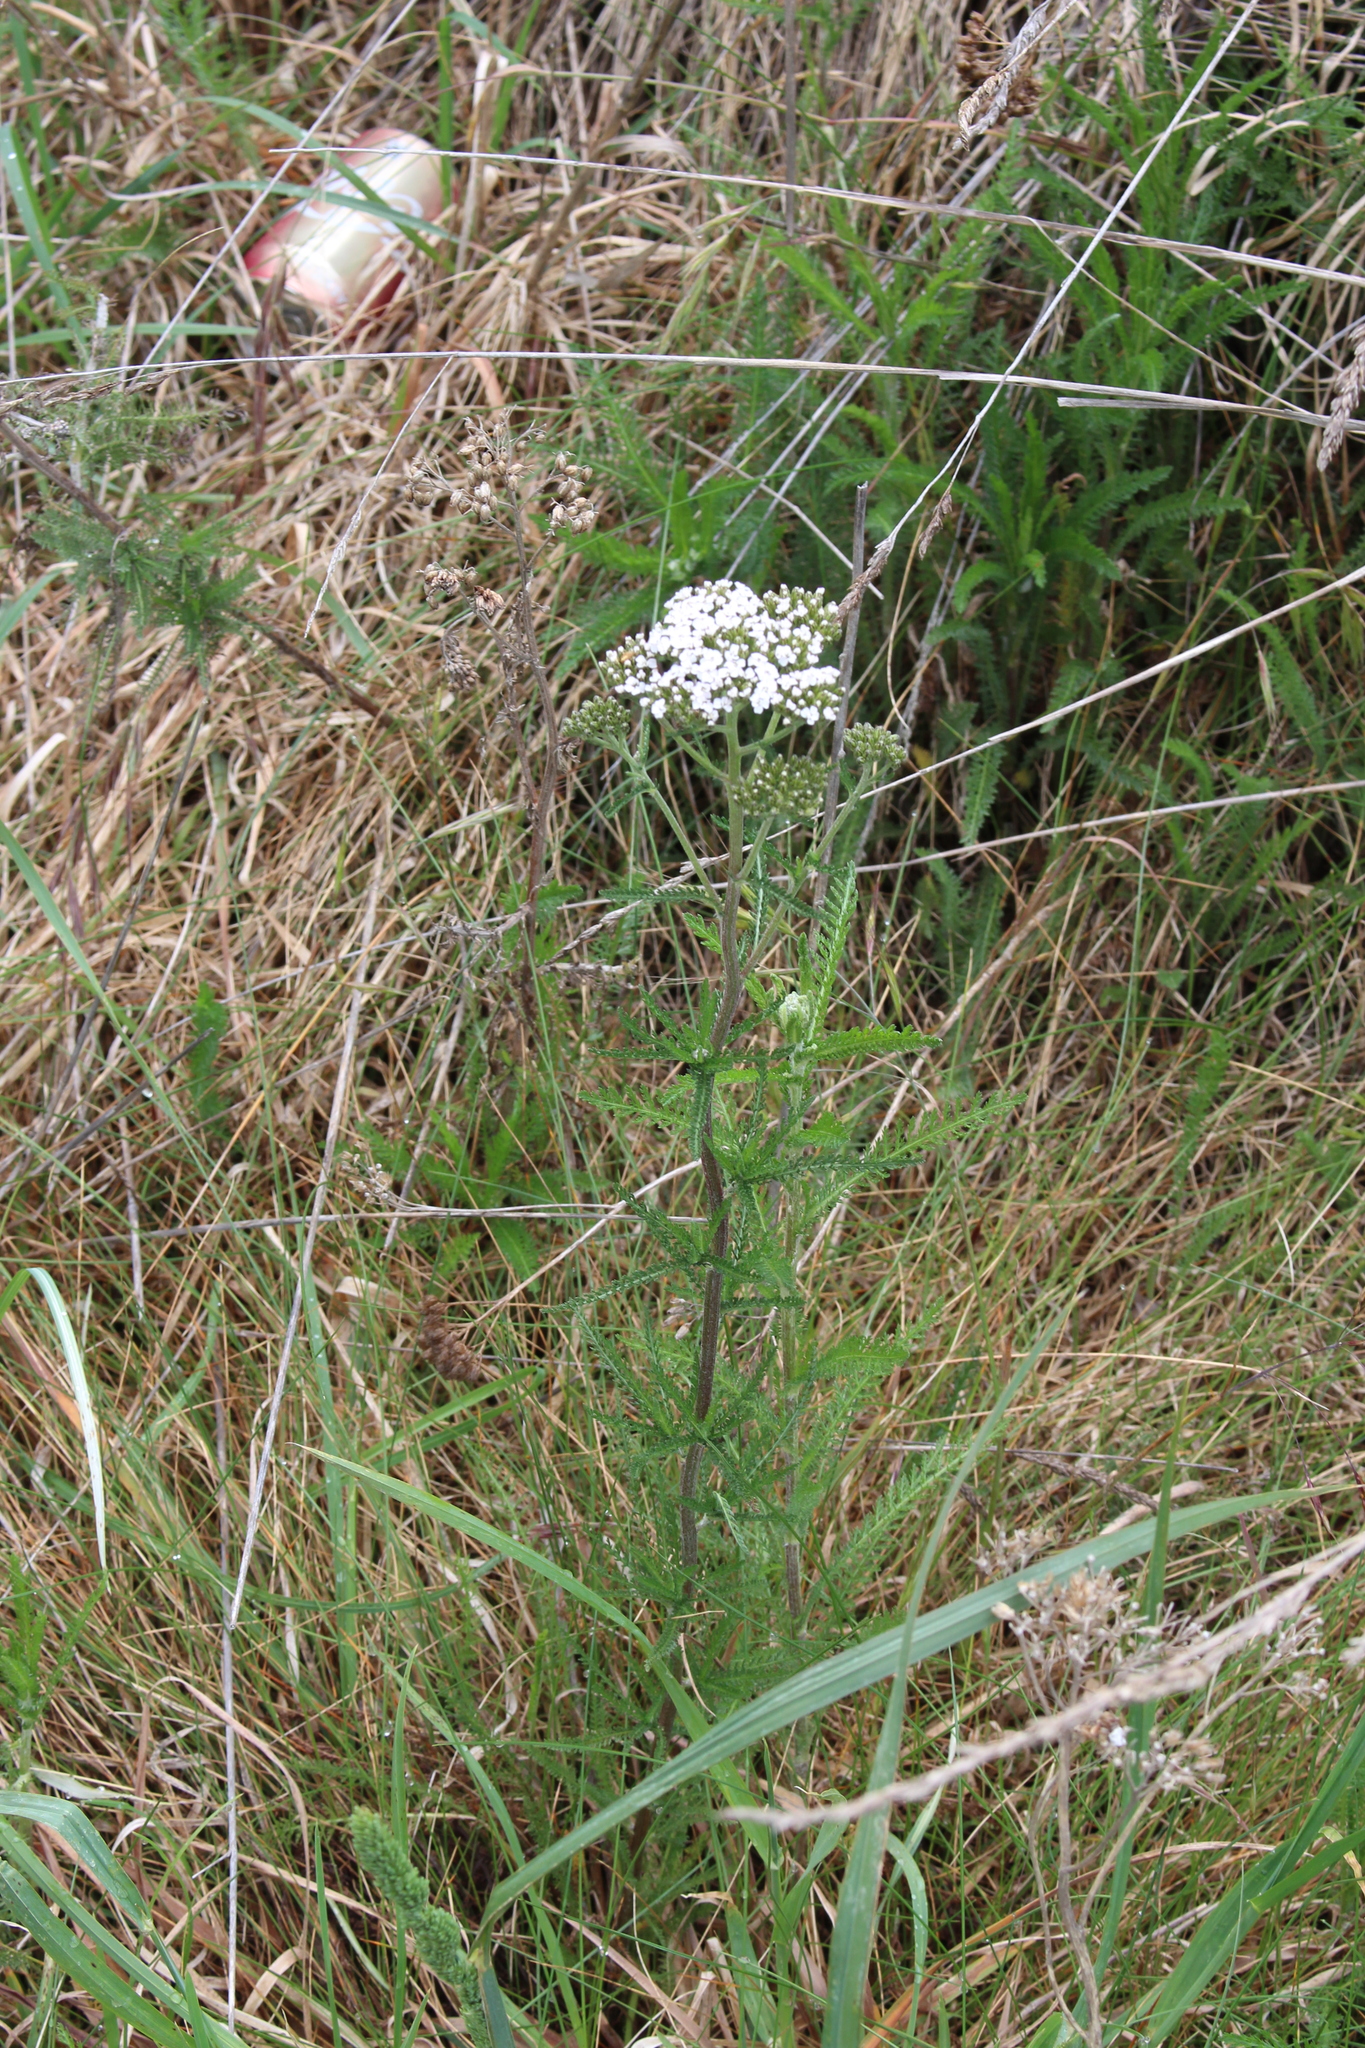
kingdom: Plantae
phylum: Tracheophyta
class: Magnoliopsida
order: Asterales
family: Asteraceae
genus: Achillea
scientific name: Achillea millefolium
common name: Yarrow
